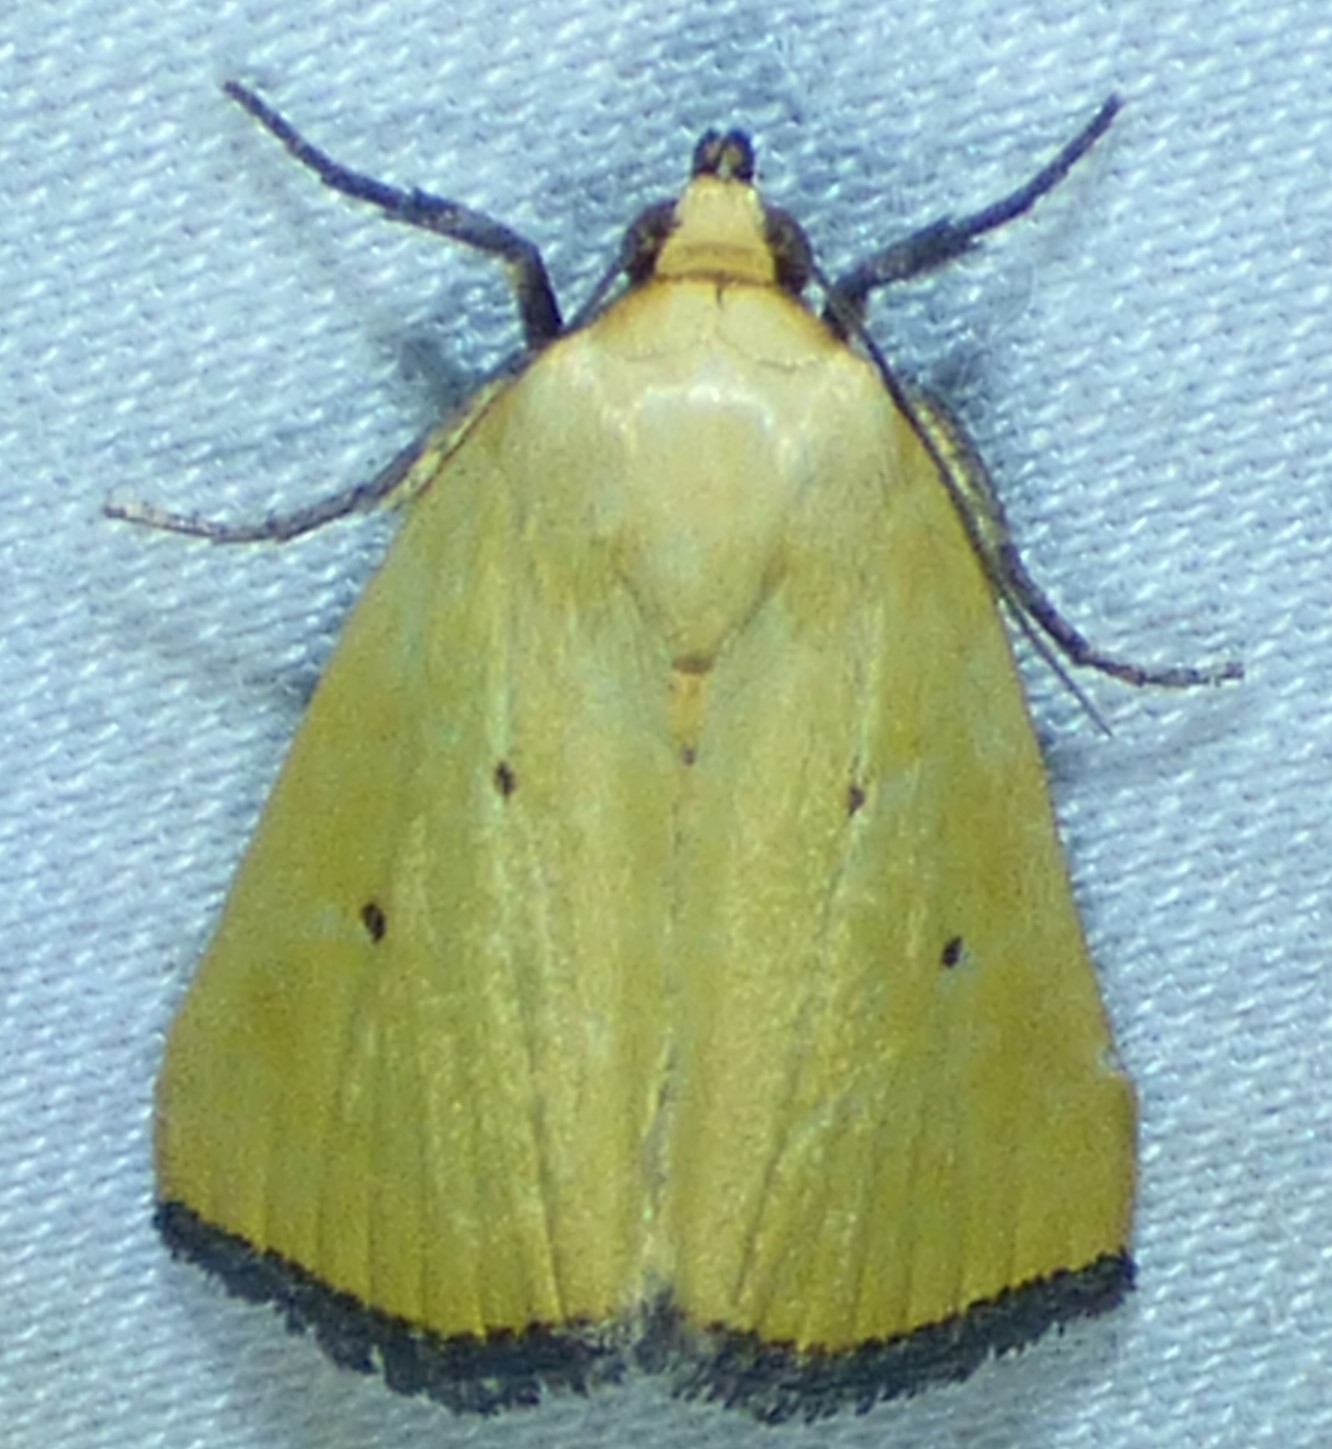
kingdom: Animalia
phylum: Arthropoda
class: Insecta
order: Lepidoptera
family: Noctuidae
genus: Marimatha
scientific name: Marimatha nigrofimbria
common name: Black-bordered lemon moth
